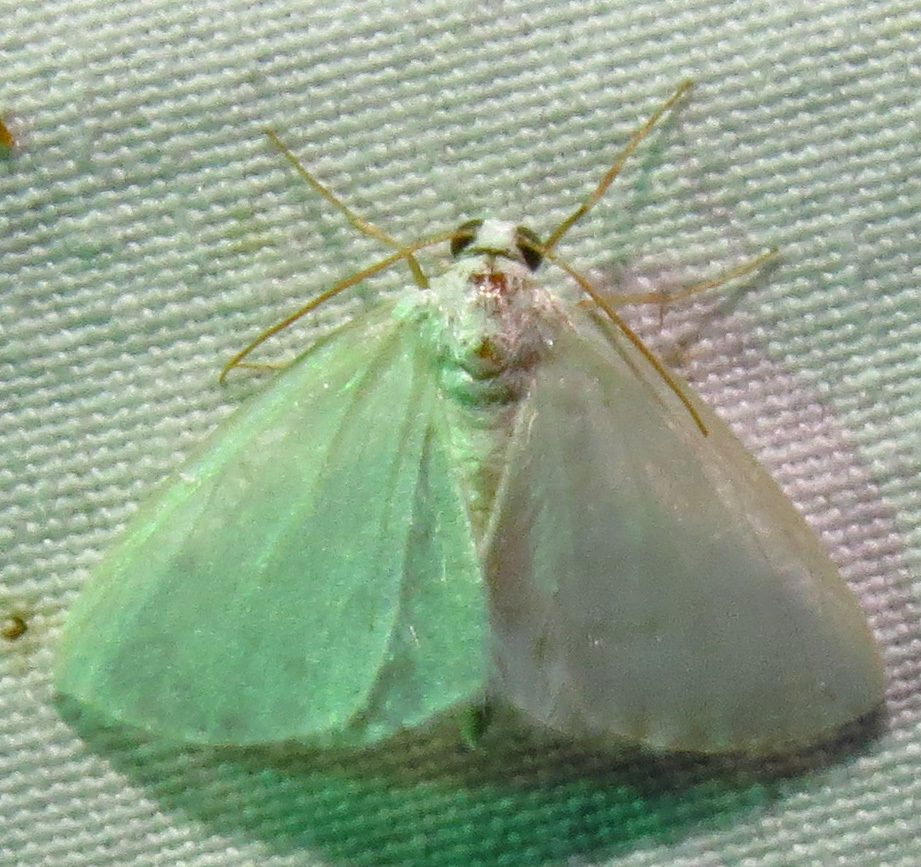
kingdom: Animalia
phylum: Arthropoda
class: Insecta
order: Lepidoptera
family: Geometridae
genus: Lomographa
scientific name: Lomographa vestaliata
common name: White spring moth
